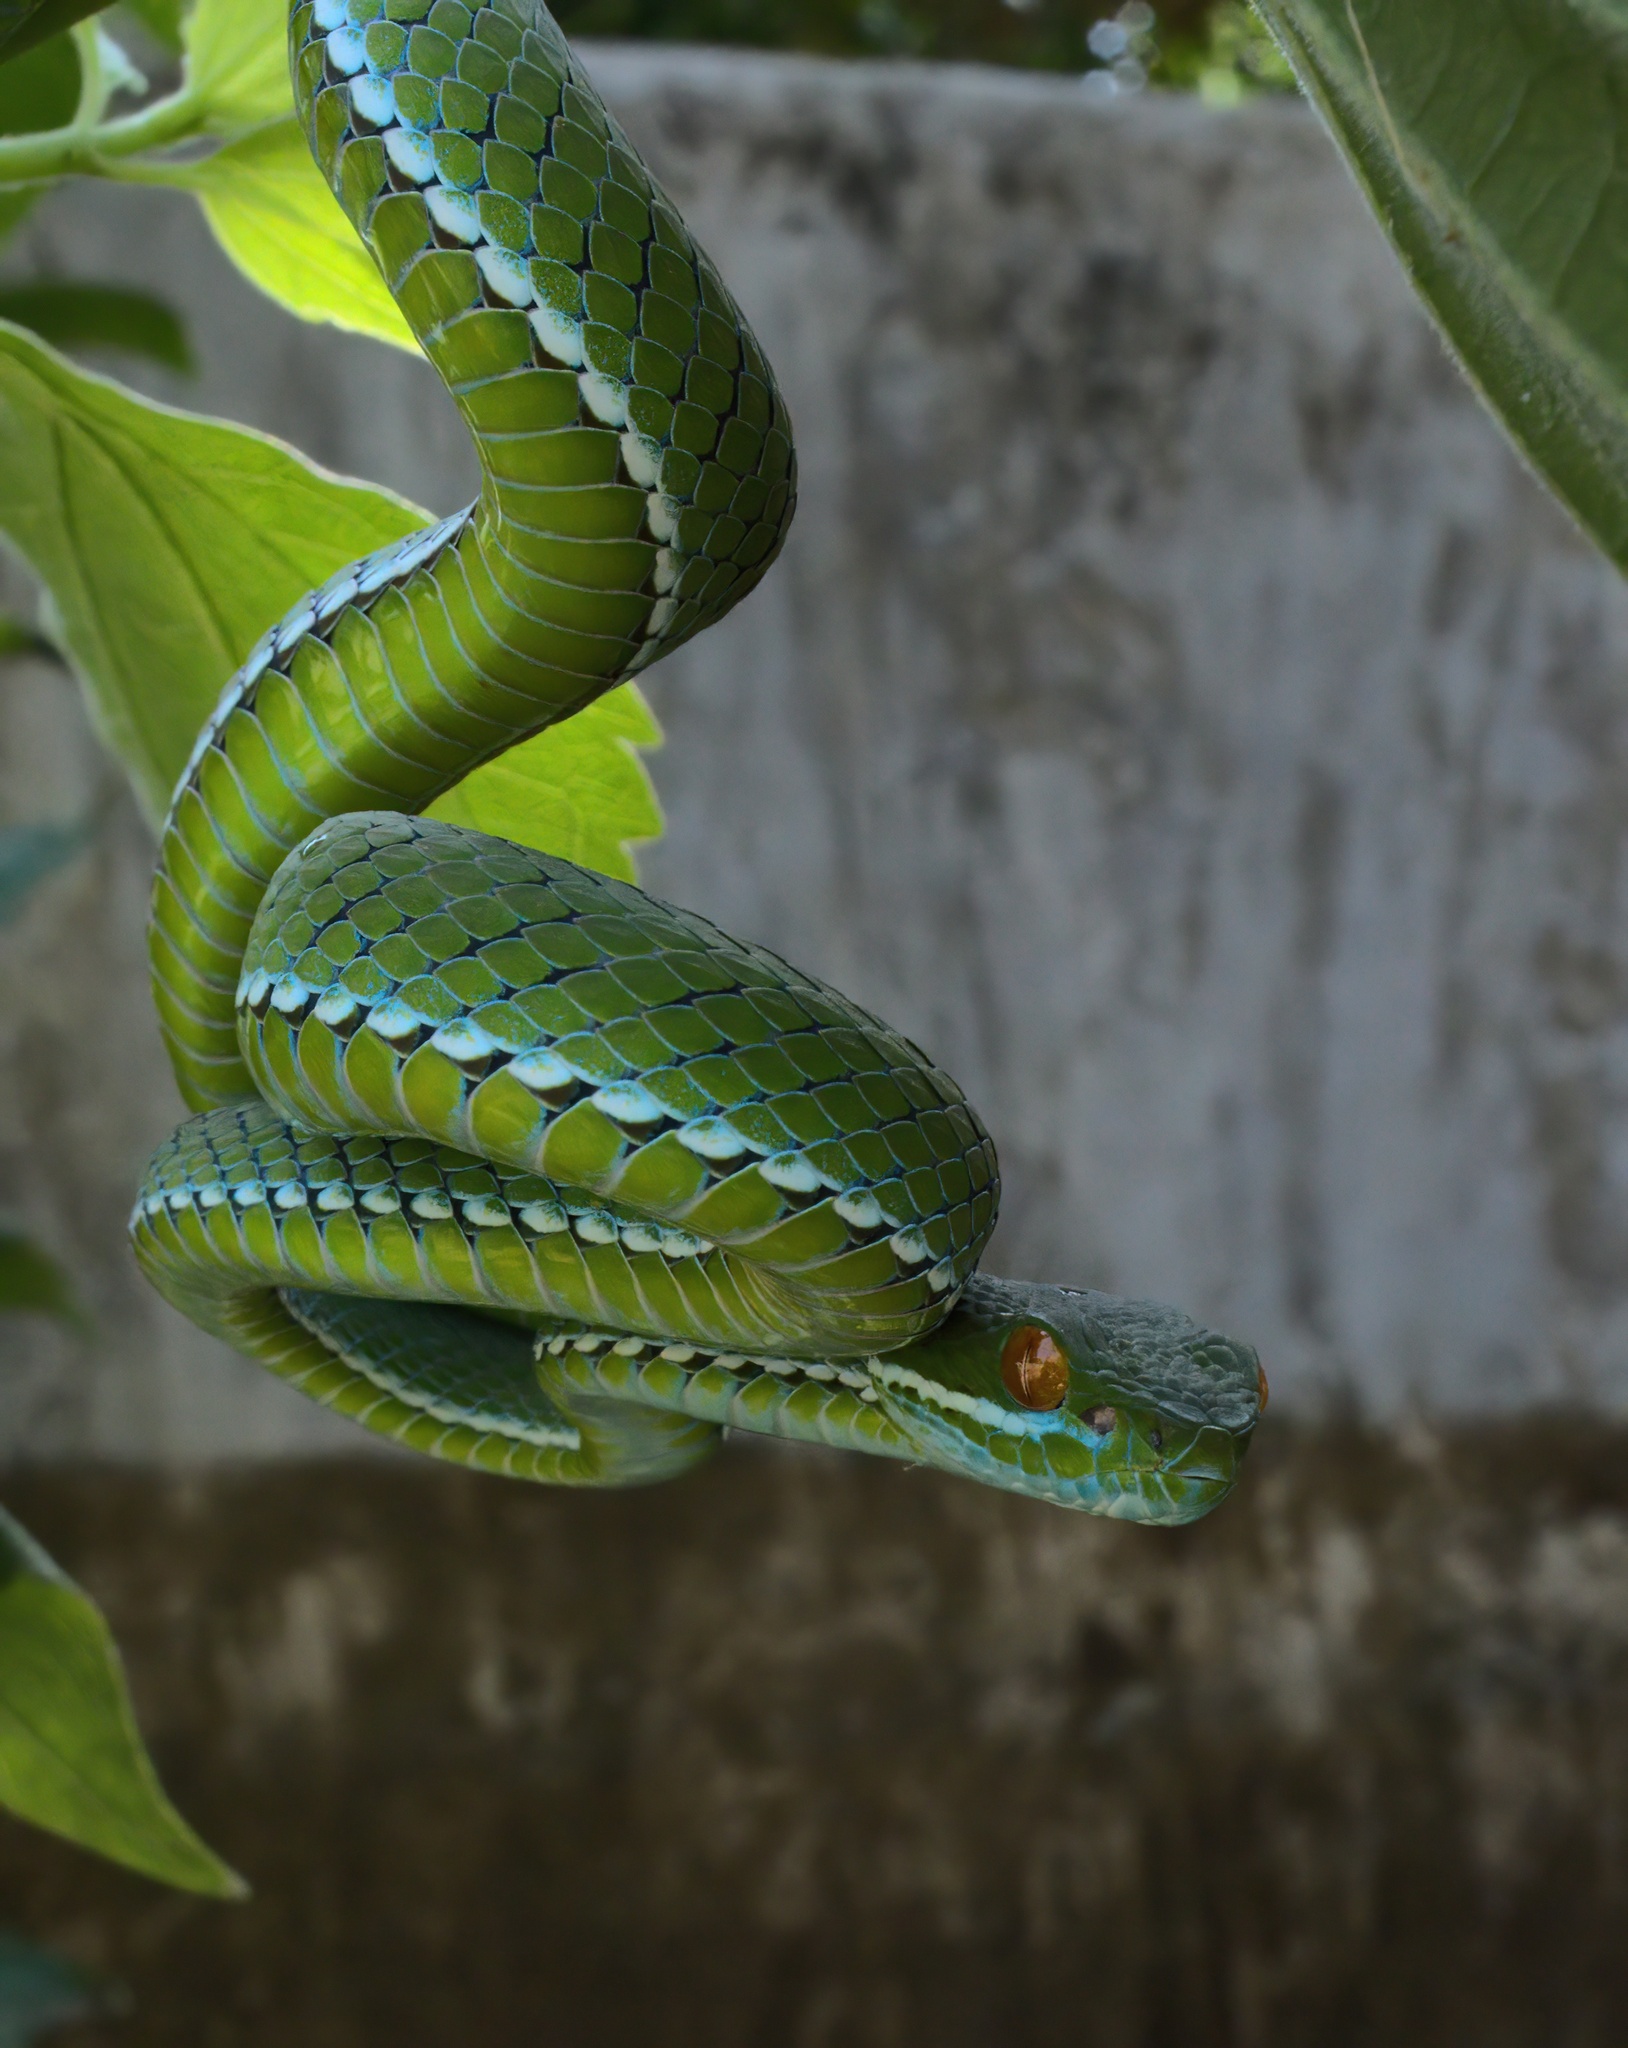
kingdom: Animalia
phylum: Chordata
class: Squamata
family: Viperidae
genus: Craspedocephalus
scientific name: Craspedocephalus rubeus
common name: Ruby-eyed green pitviper
